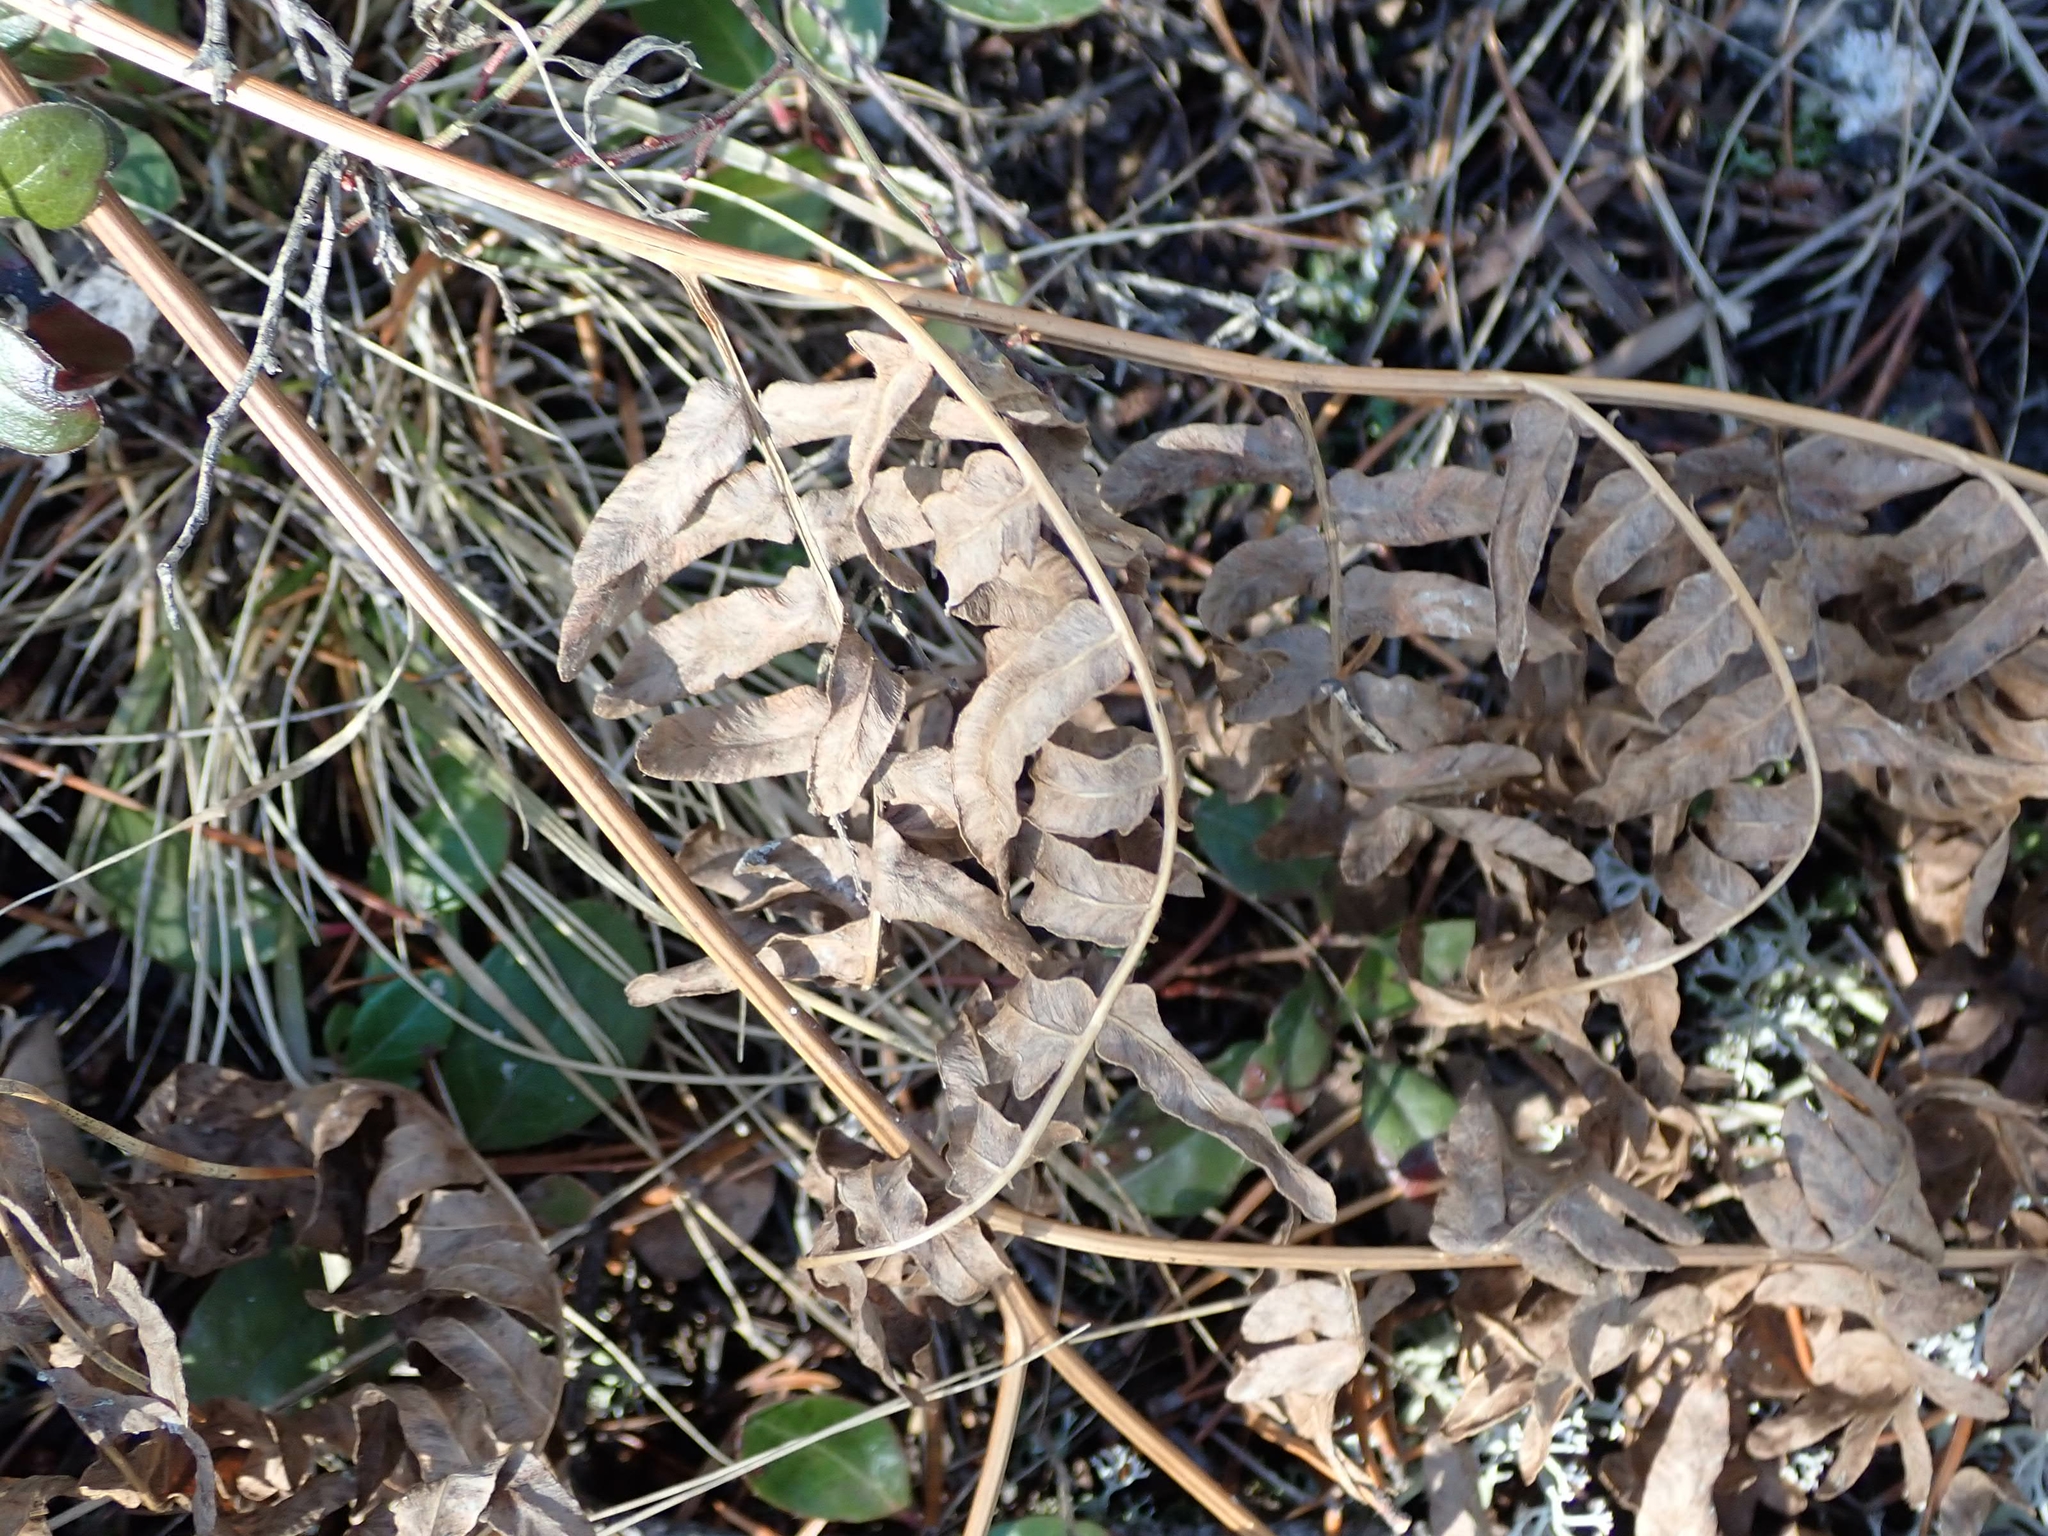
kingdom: Plantae
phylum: Tracheophyta
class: Polypodiopsida
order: Polypodiales
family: Dennstaedtiaceae
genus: Pteridium
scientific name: Pteridium aquilinum
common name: Bracken
